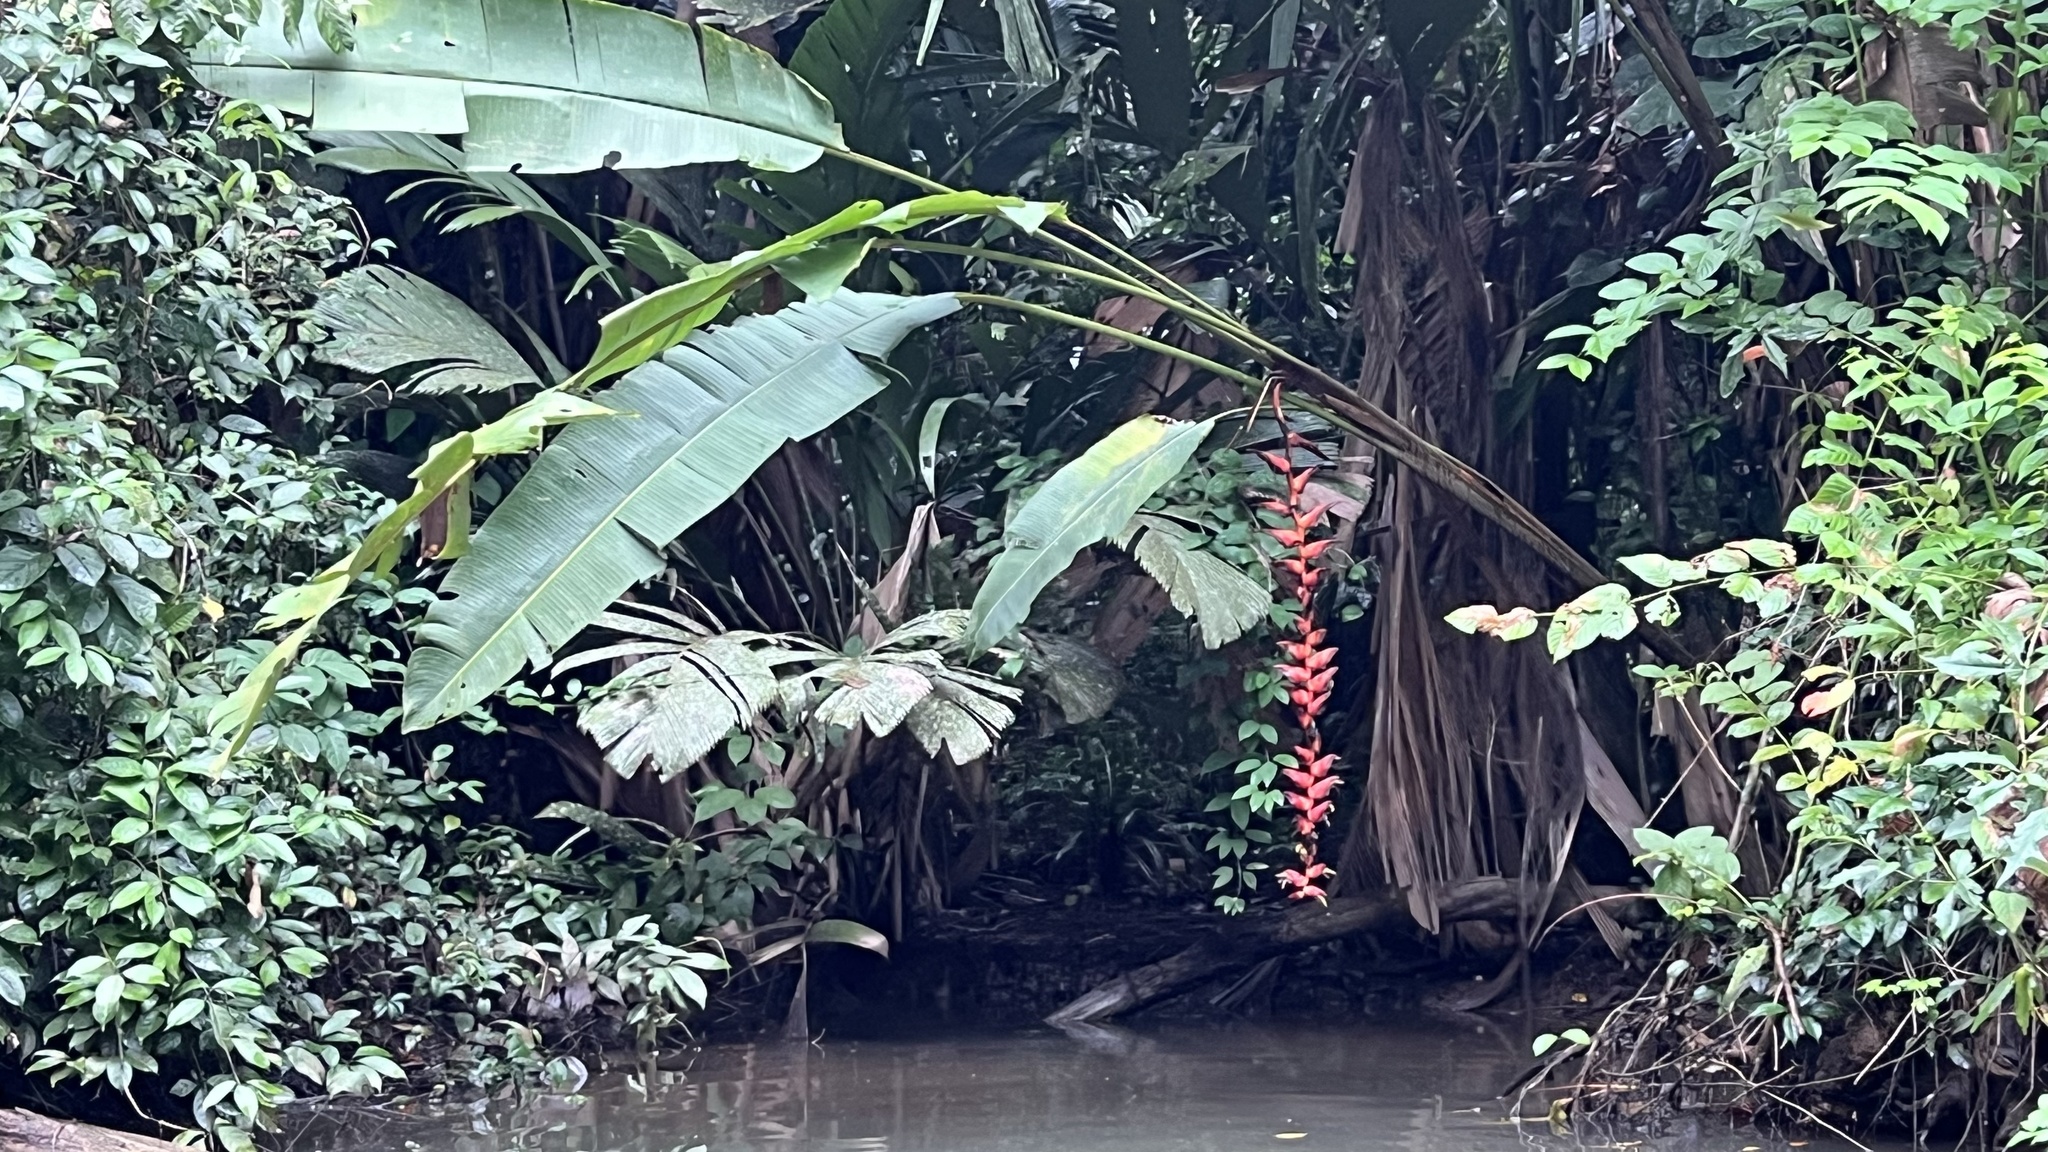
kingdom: Plantae
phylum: Tracheophyta
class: Liliopsida
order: Zingiberales
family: Heliconiaceae
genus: Heliconia
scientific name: Heliconia pogonantha
